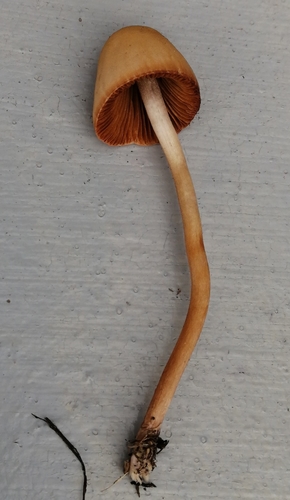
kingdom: Fungi
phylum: Basidiomycota
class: Agaricomycetes
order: Agaricales
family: Bolbitiaceae
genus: Conocybe
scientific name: Conocybe semiglobata
